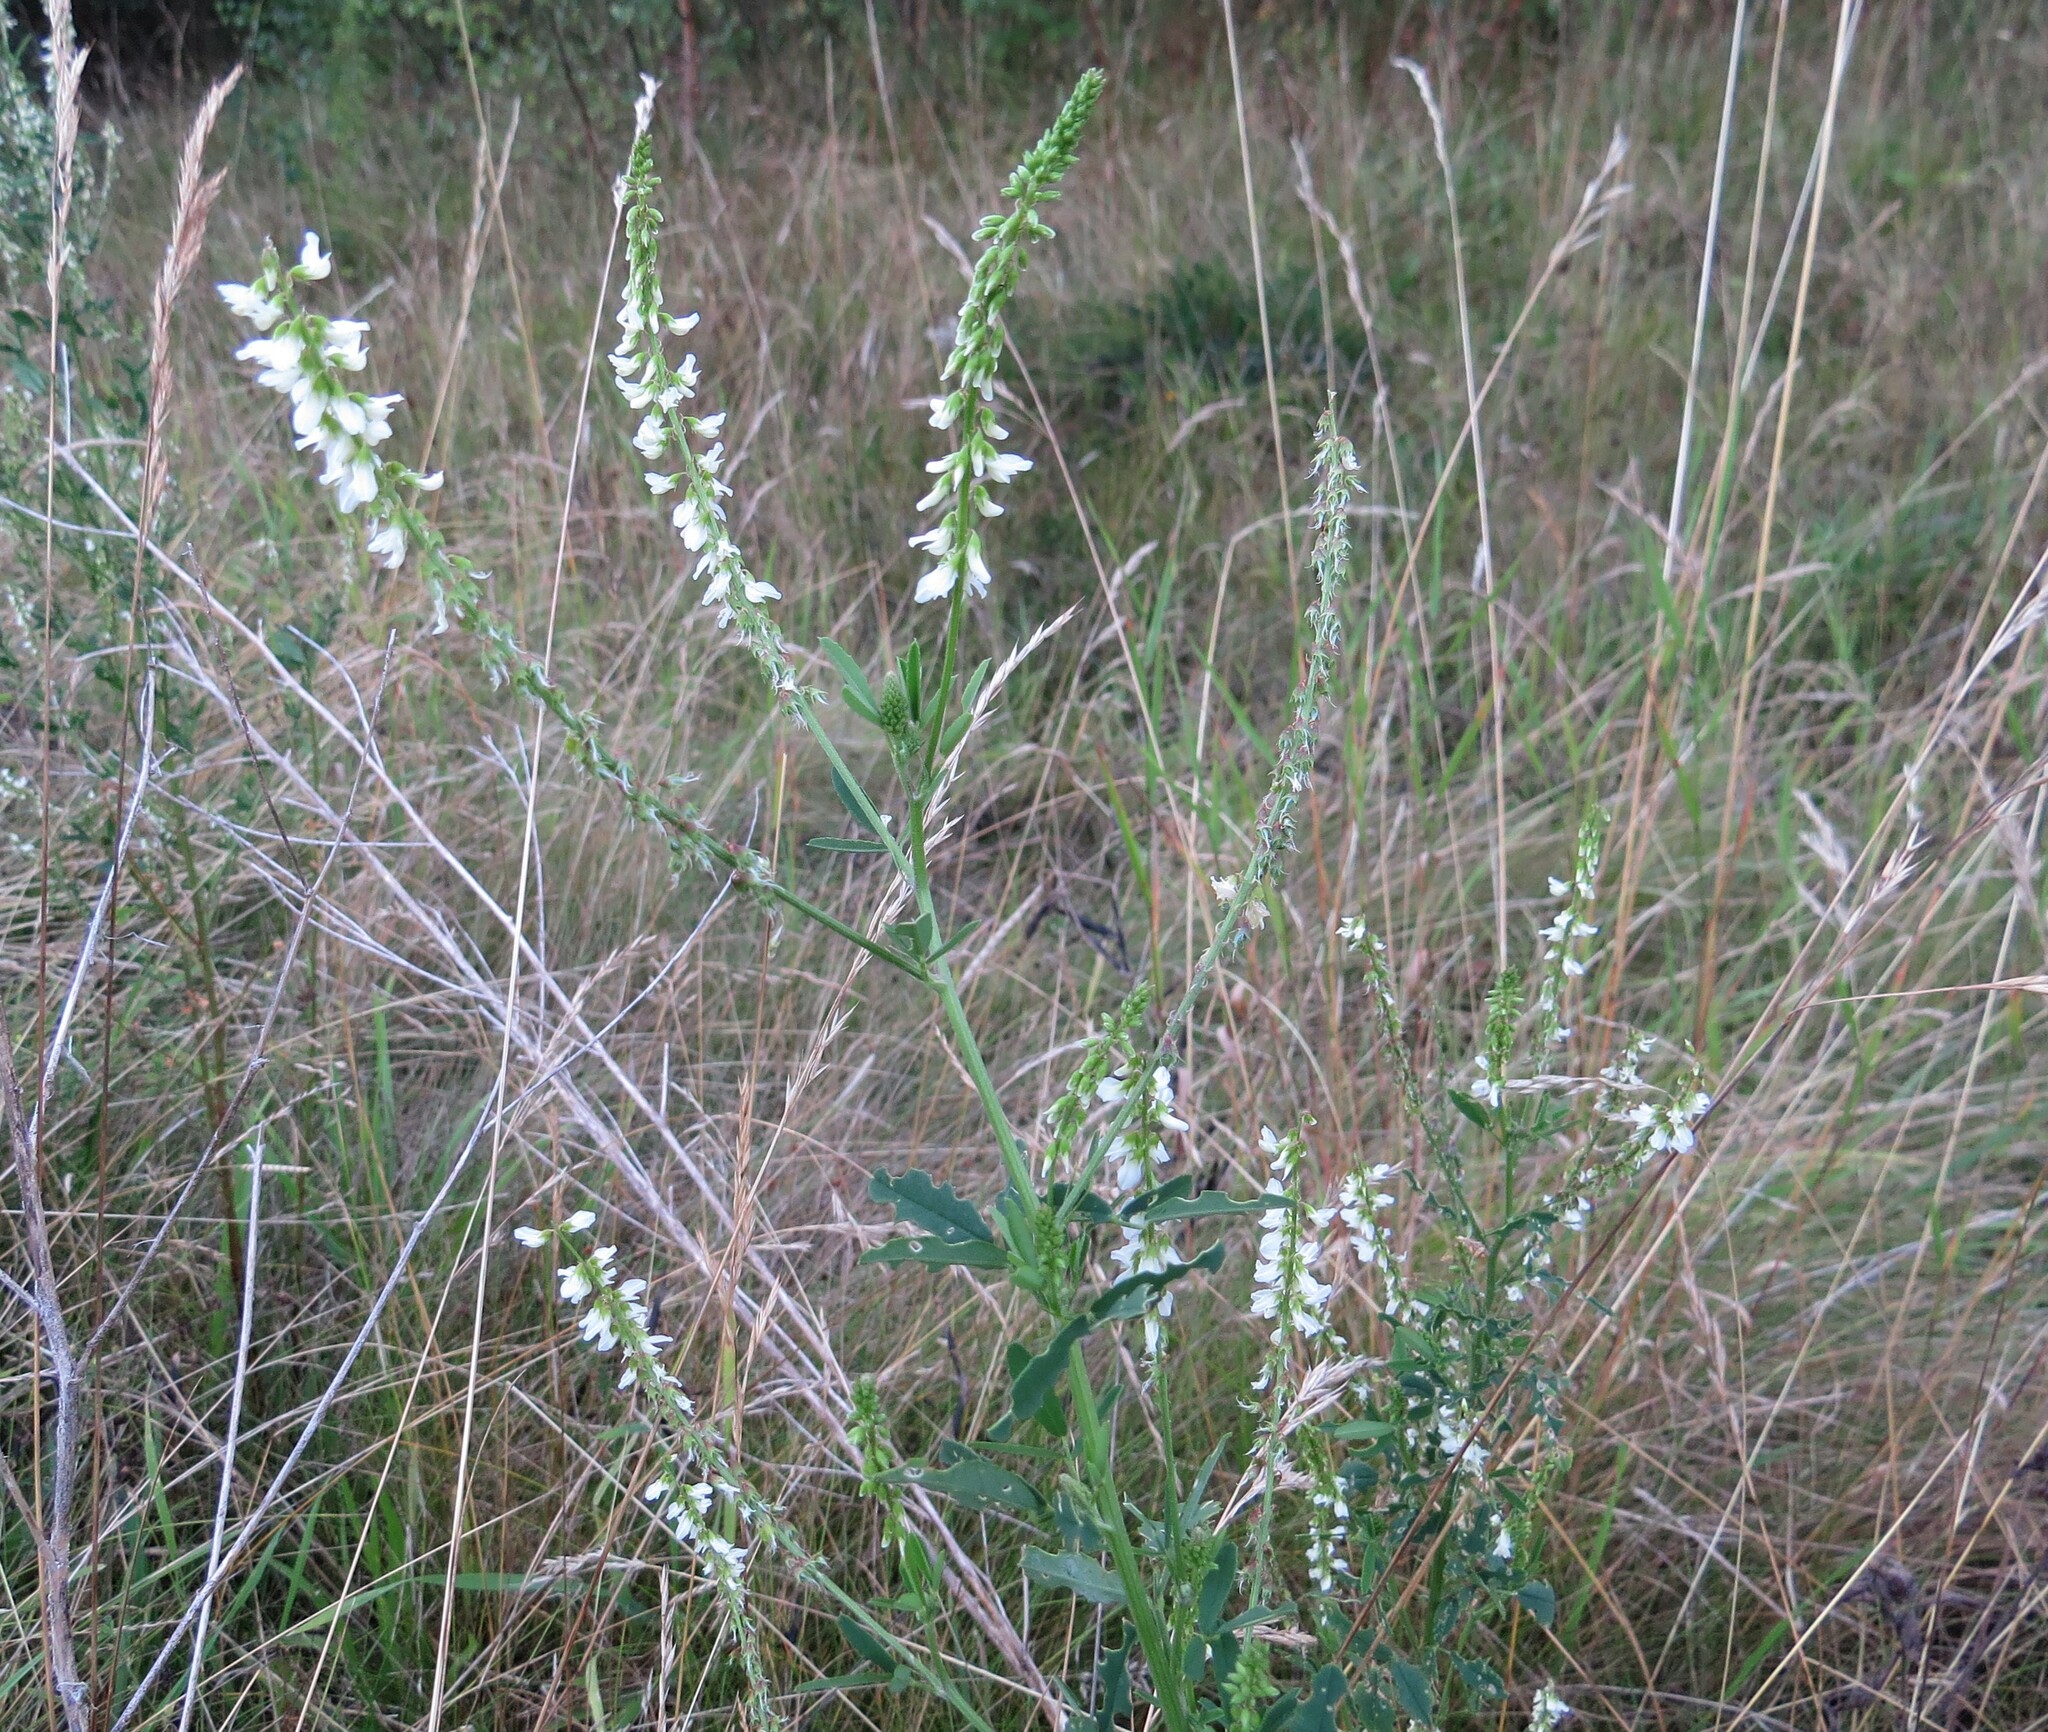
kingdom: Plantae
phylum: Tracheophyta
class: Magnoliopsida
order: Fabales
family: Fabaceae
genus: Melilotus
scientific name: Melilotus albus
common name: White melilot
